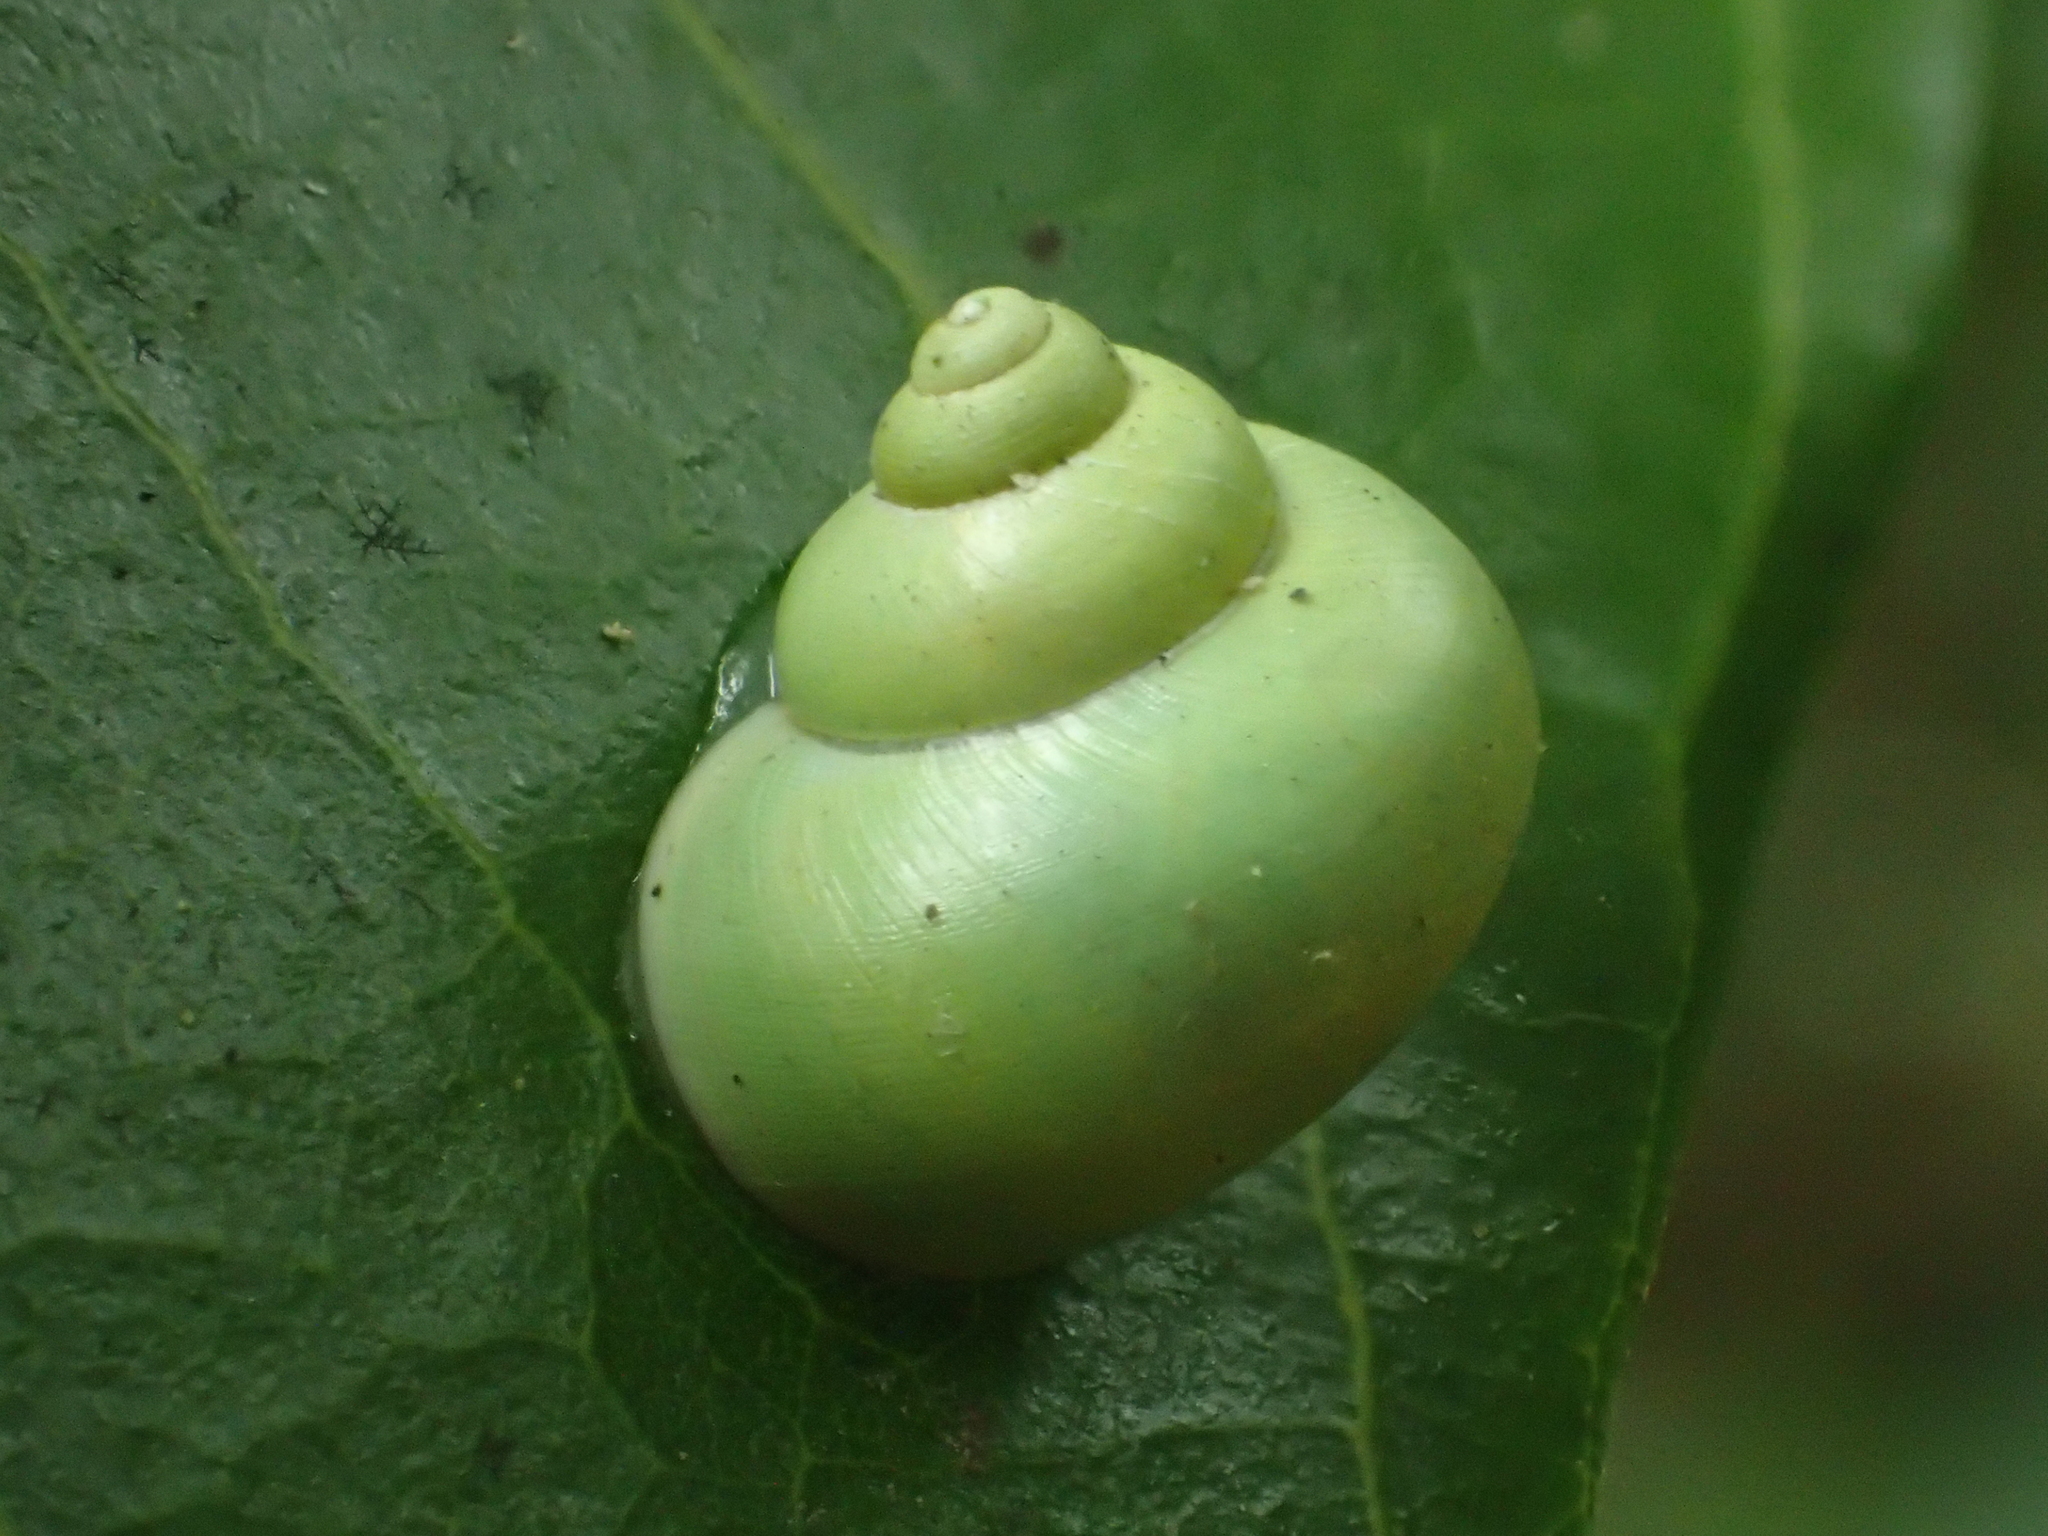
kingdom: Animalia
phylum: Mollusca
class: Gastropoda
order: Architaenioglossa
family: Cyclophoridae
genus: Leptopoma
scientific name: Leptopoma nitidum
